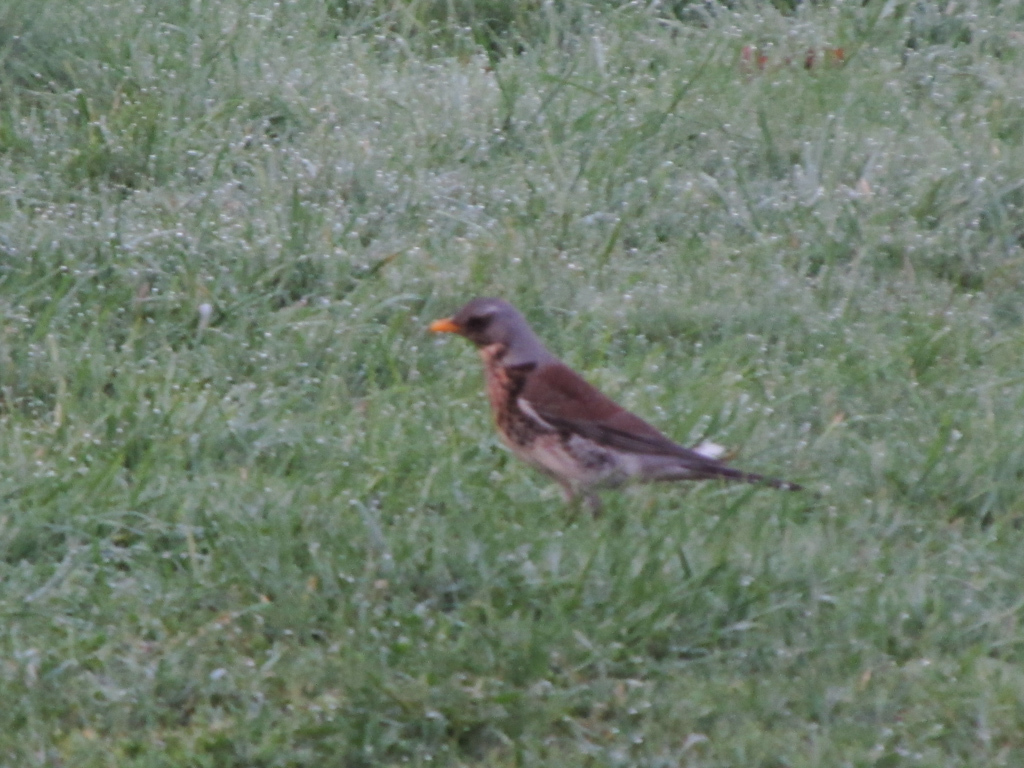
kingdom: Animalia
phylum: Chordata
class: Aves
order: Passeriformes
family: Turdidae
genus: Turdus
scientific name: Turdus pilaris
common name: Fieldfare
